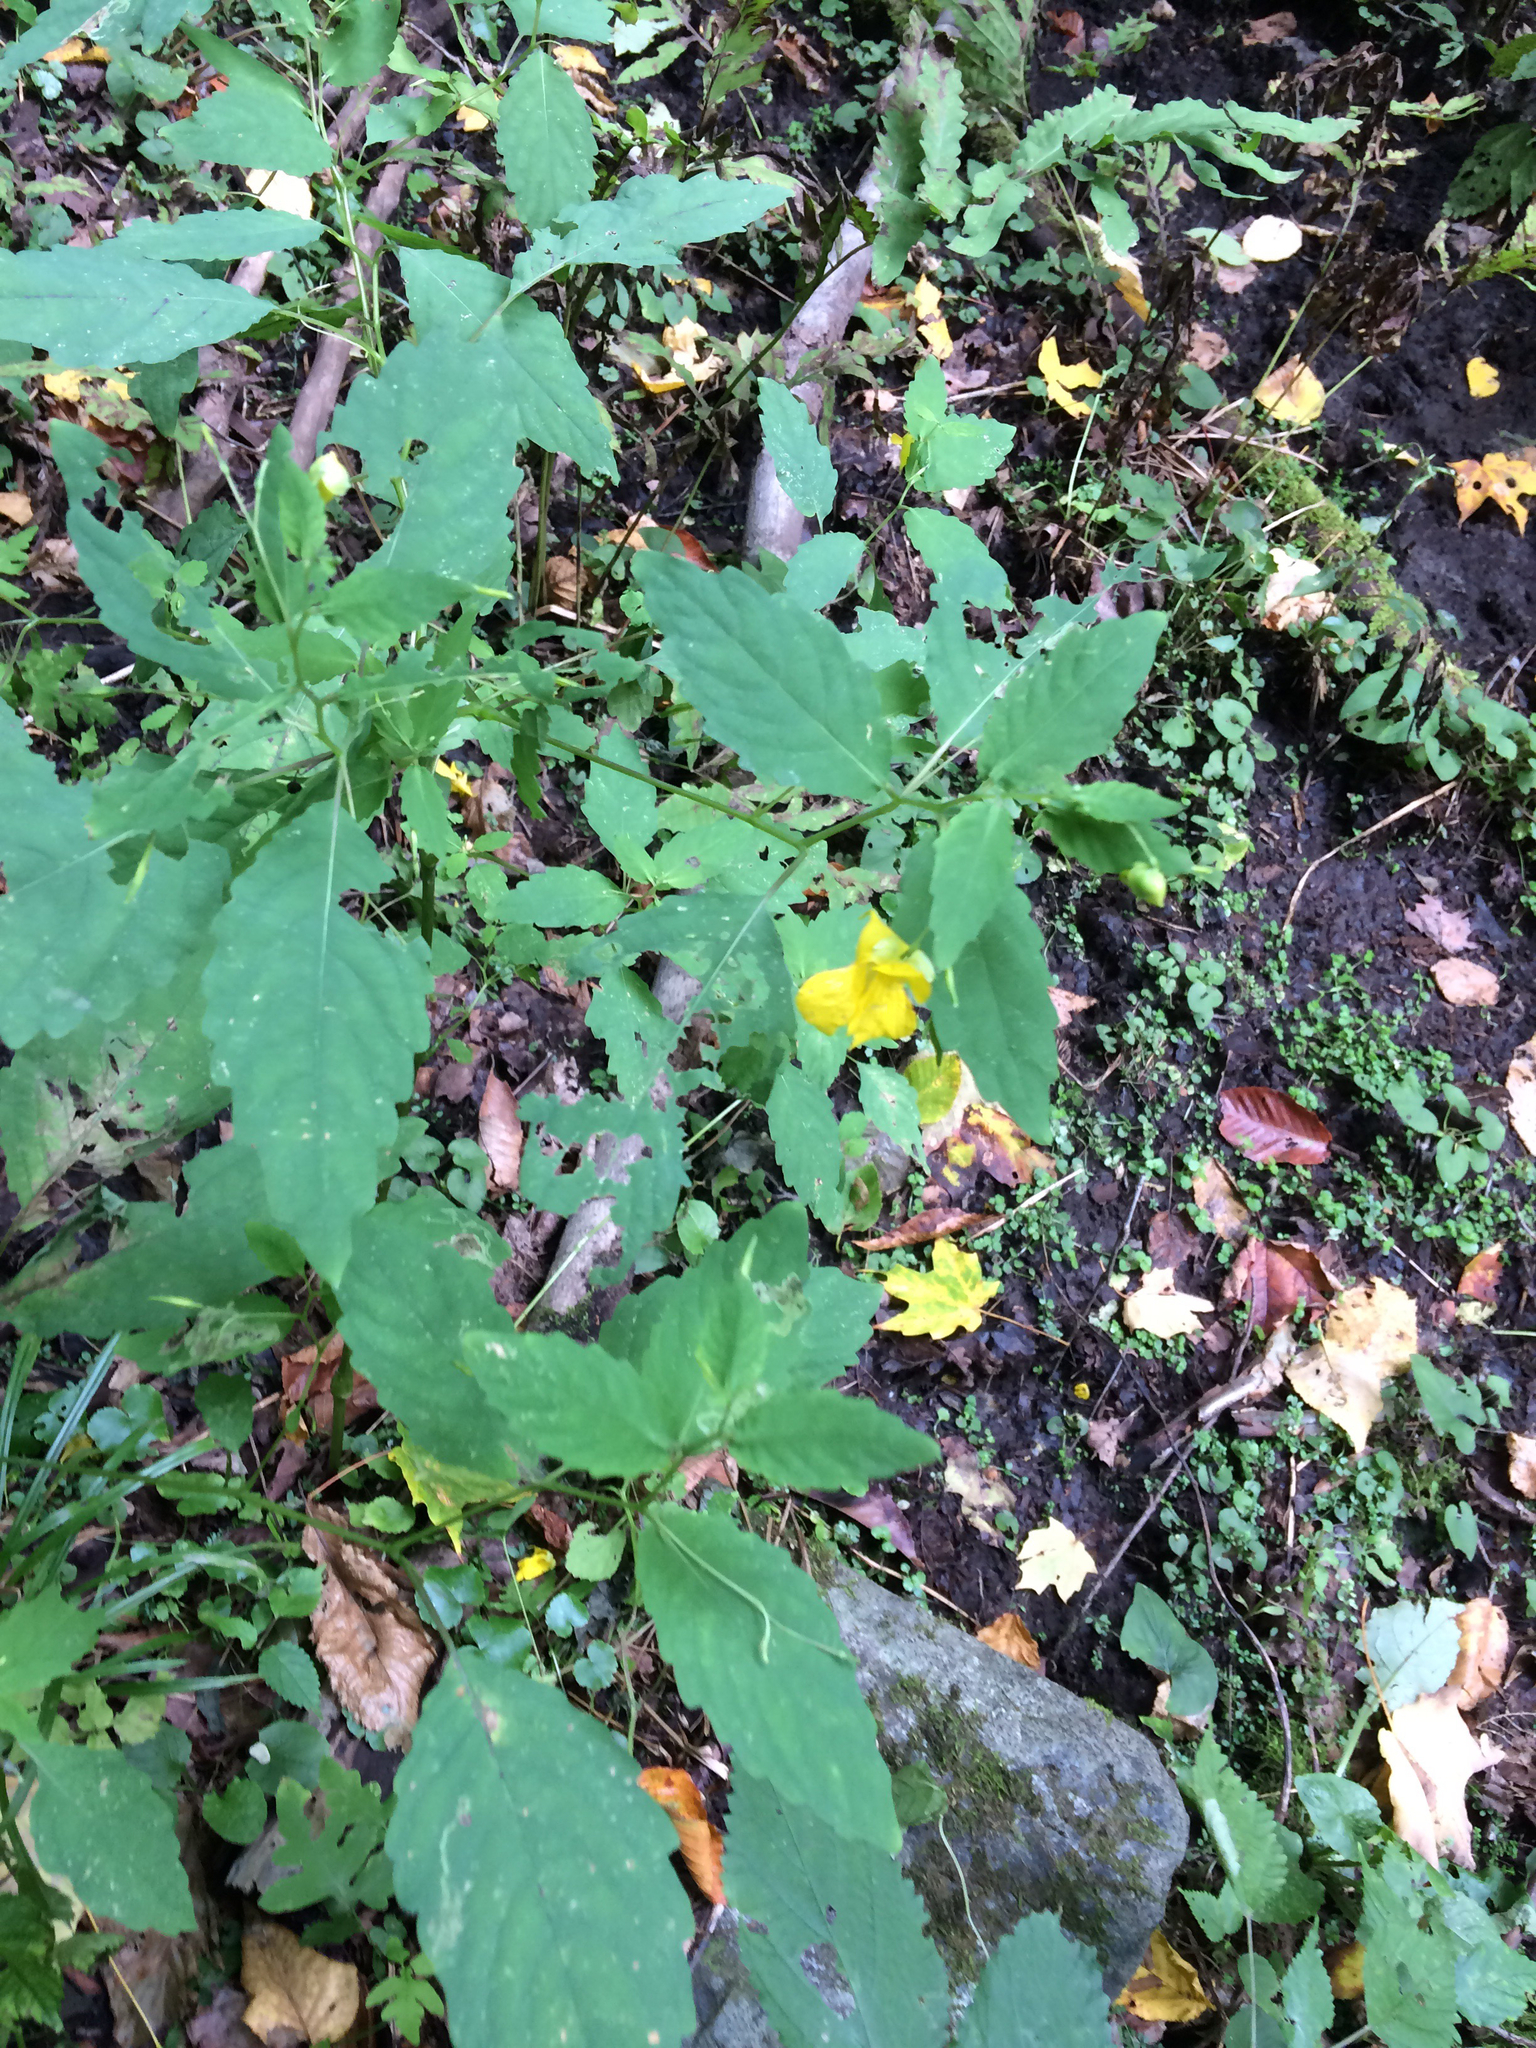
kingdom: Plantae
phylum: Tracheophyta
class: Magnoliopsida
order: Ericales
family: Balsaminaceae
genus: Impatiens
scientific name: Impatiens pallida
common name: Pale snapweed
